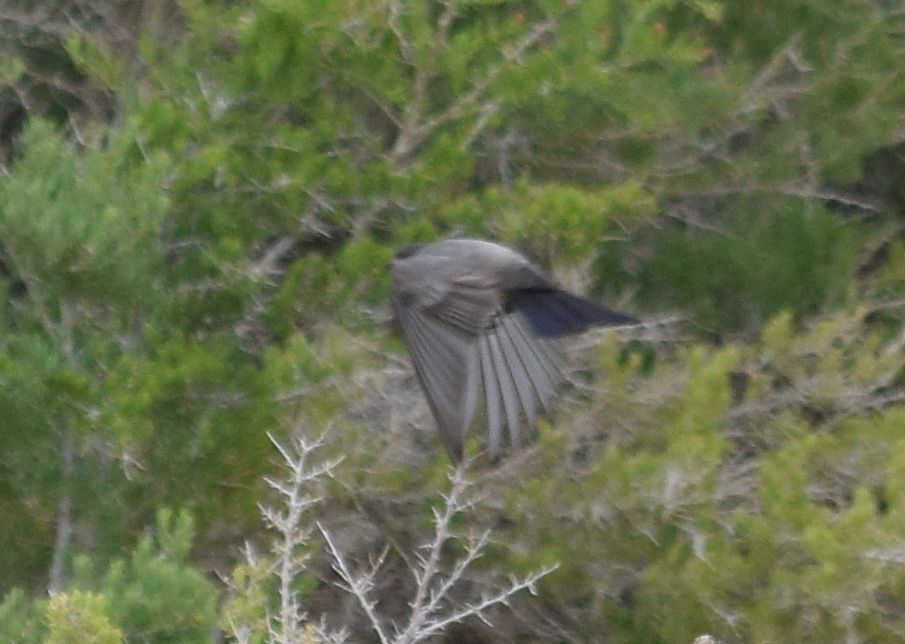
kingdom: Animalia
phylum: Chordata
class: Aves
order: Passeriformes
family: Tyrannidae
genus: Sayornis
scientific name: Sayornis saya
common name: Say's phoebe
